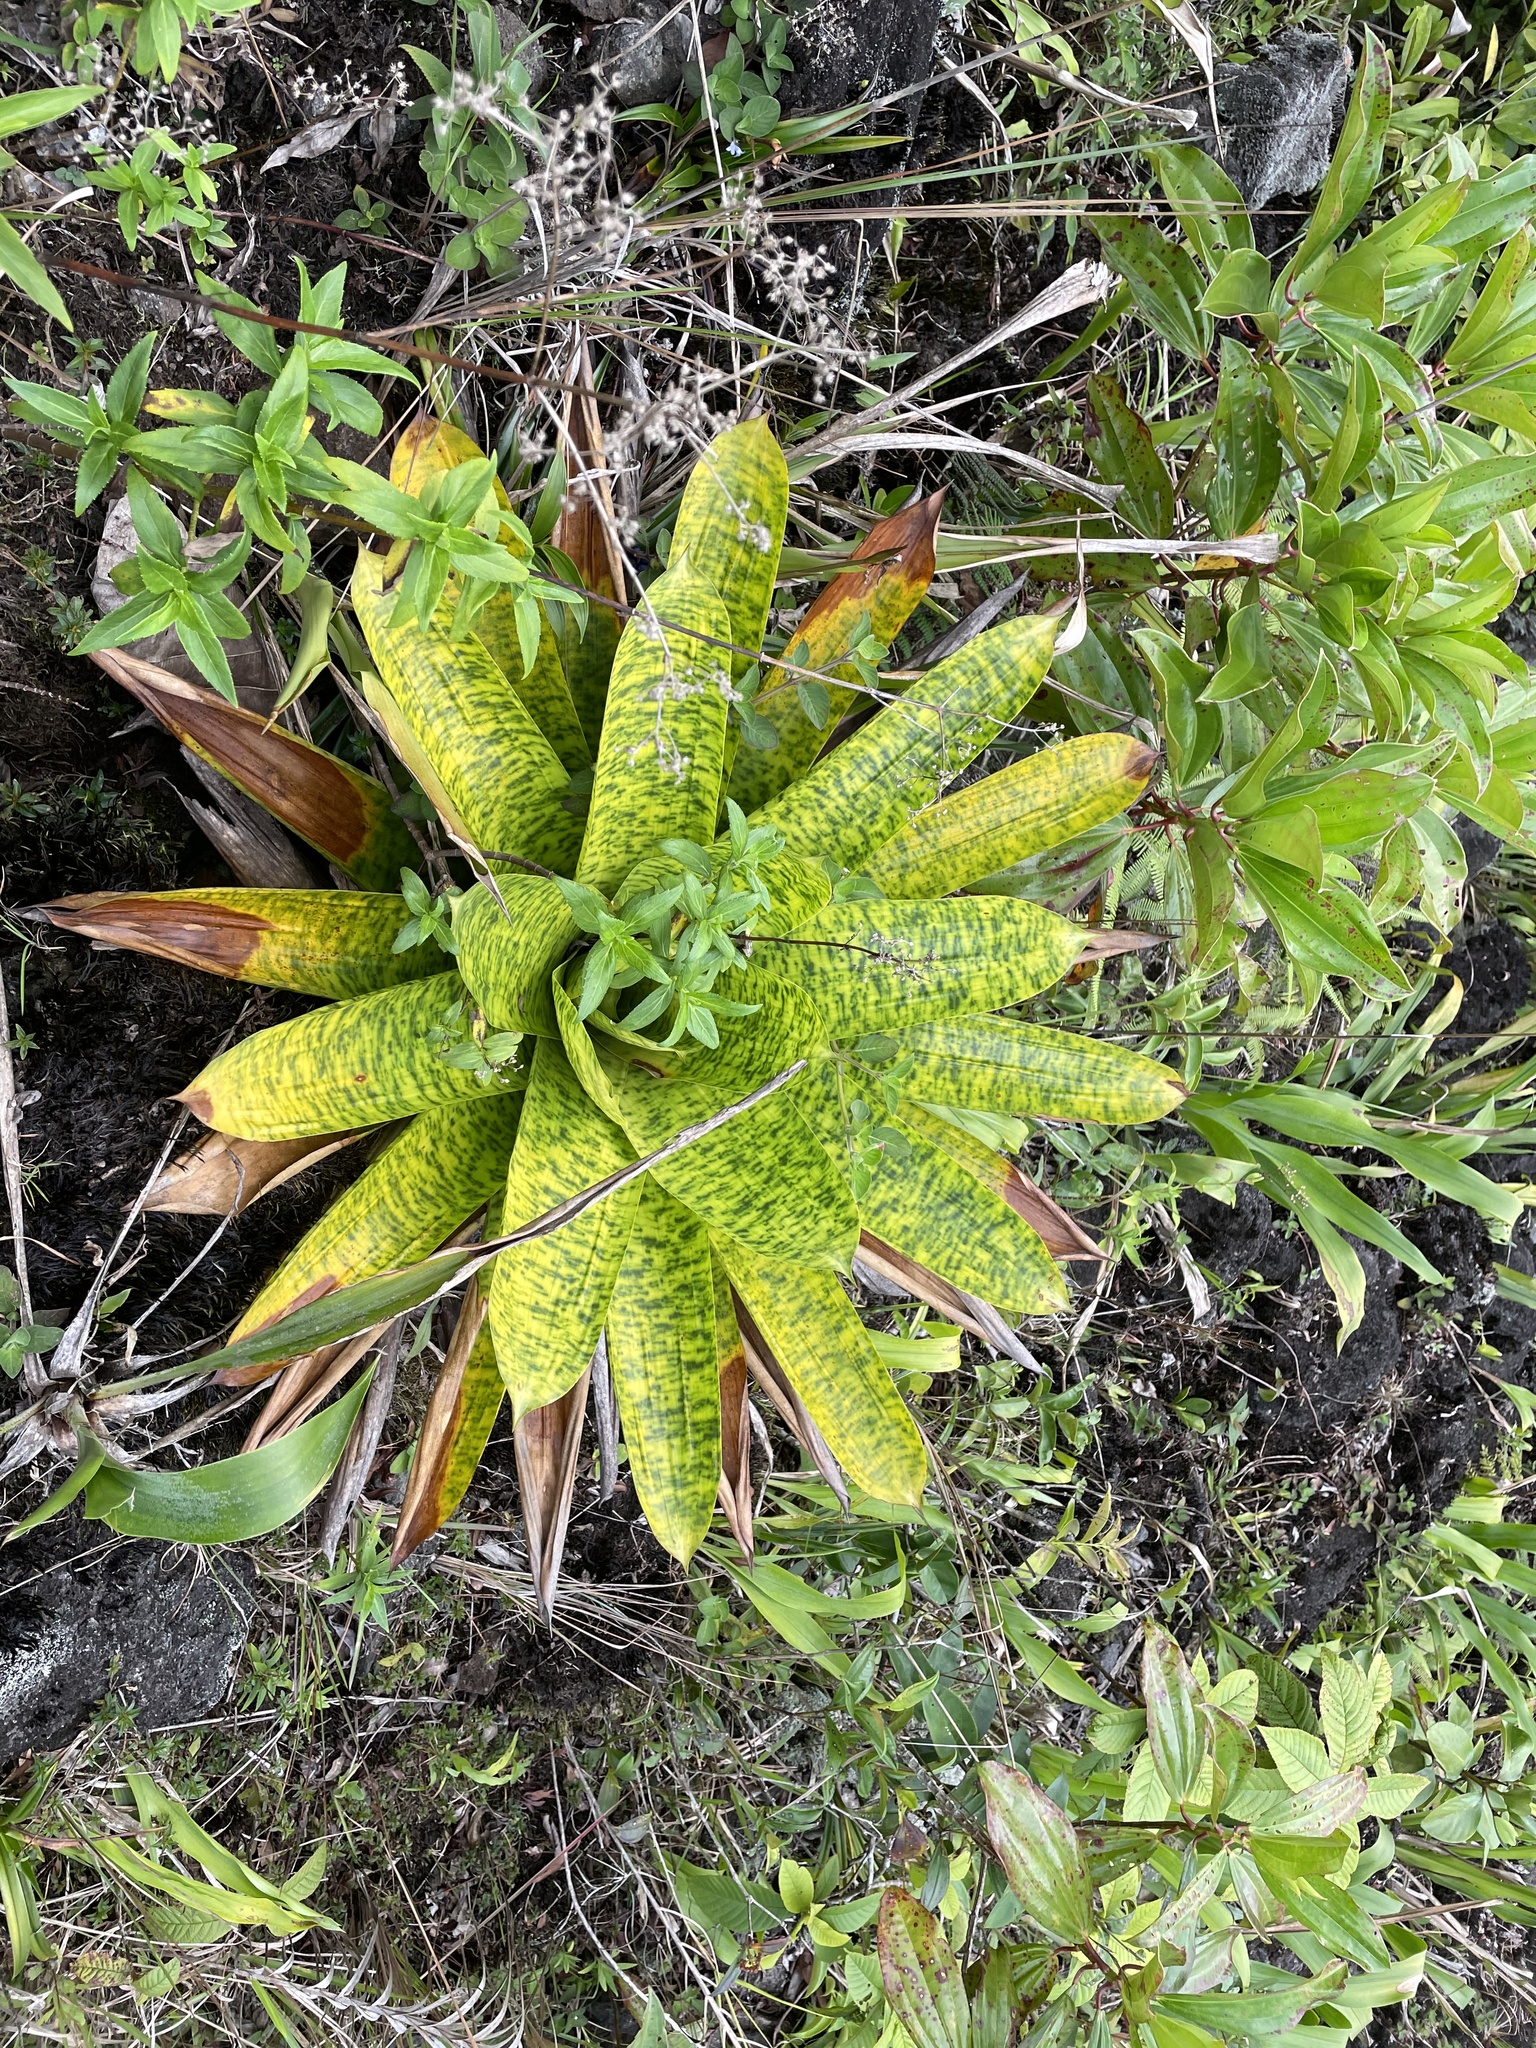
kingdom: Plantae
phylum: Tracheophyta
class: Liliopsida
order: Poales
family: Bromeliaceae
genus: Werauhia
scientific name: Werauhia kupperiana
